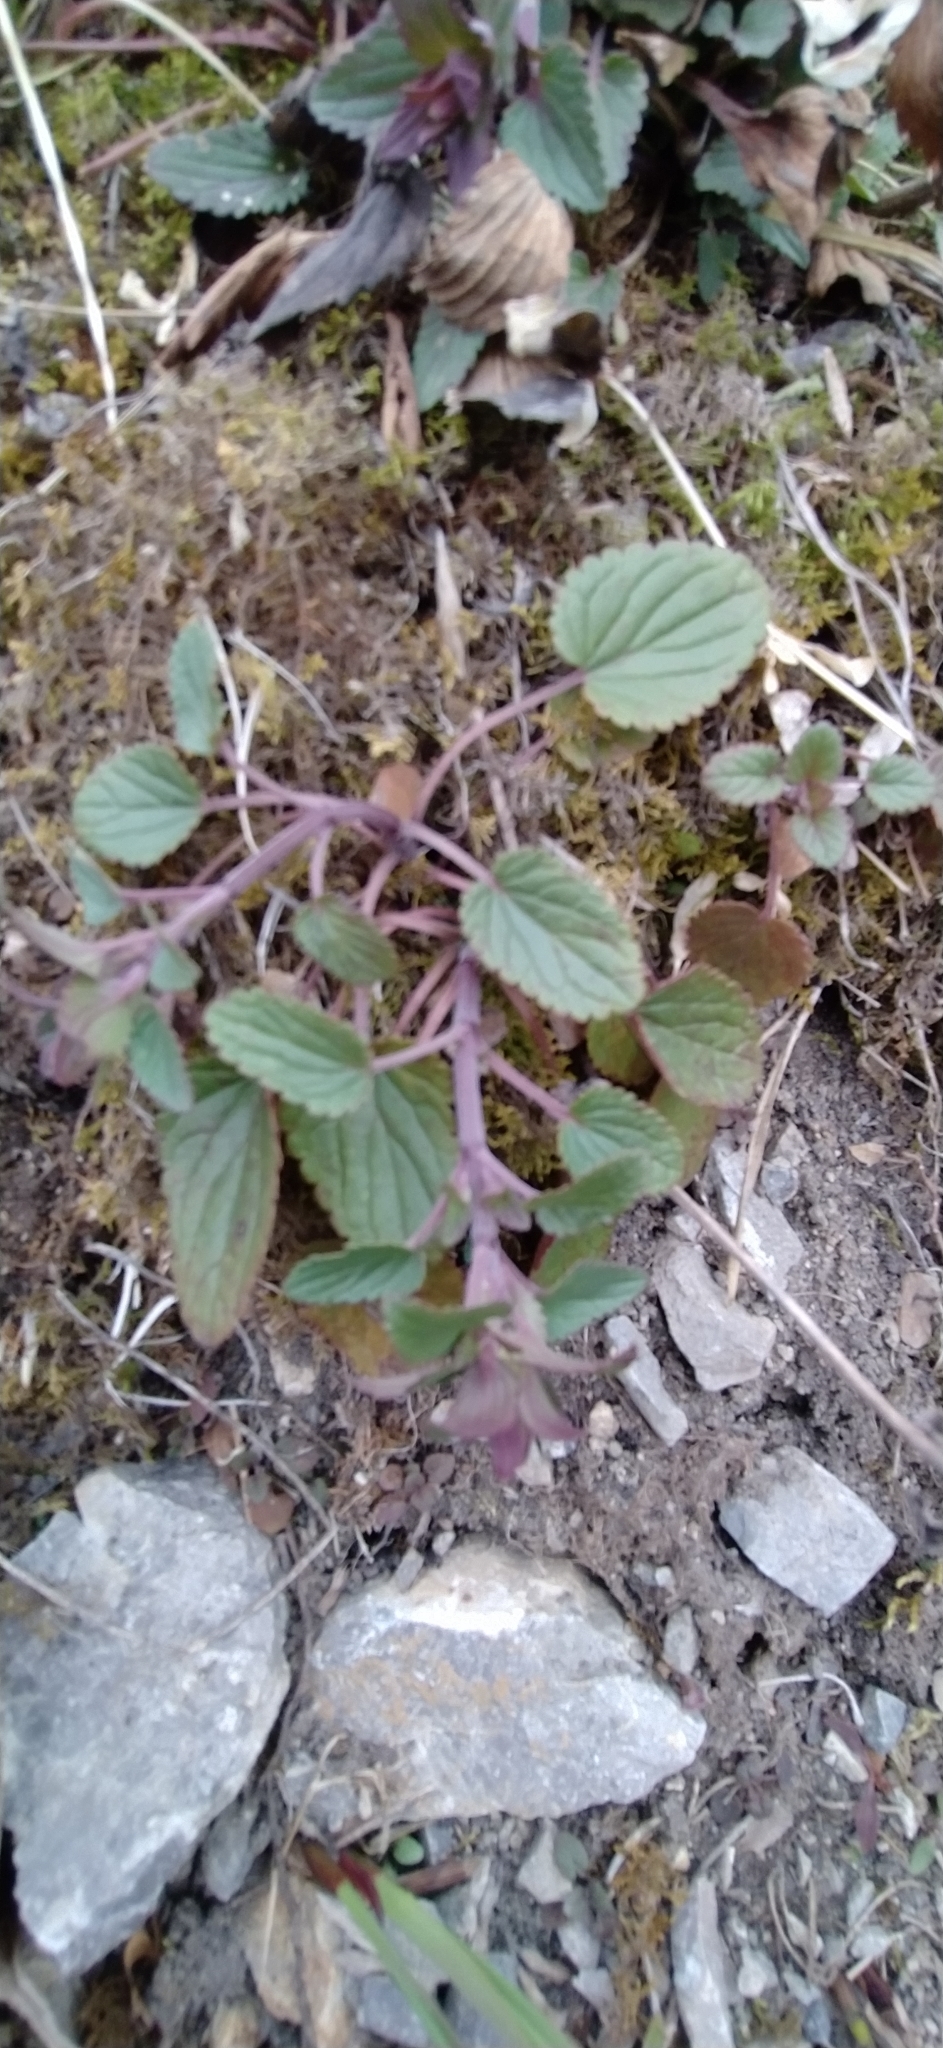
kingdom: Plantae
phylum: Tracheophyta
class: Magnoliopsida
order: Lamiales
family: Lamiaceae
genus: Dracocephalum
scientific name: Dracocephalum nutans
